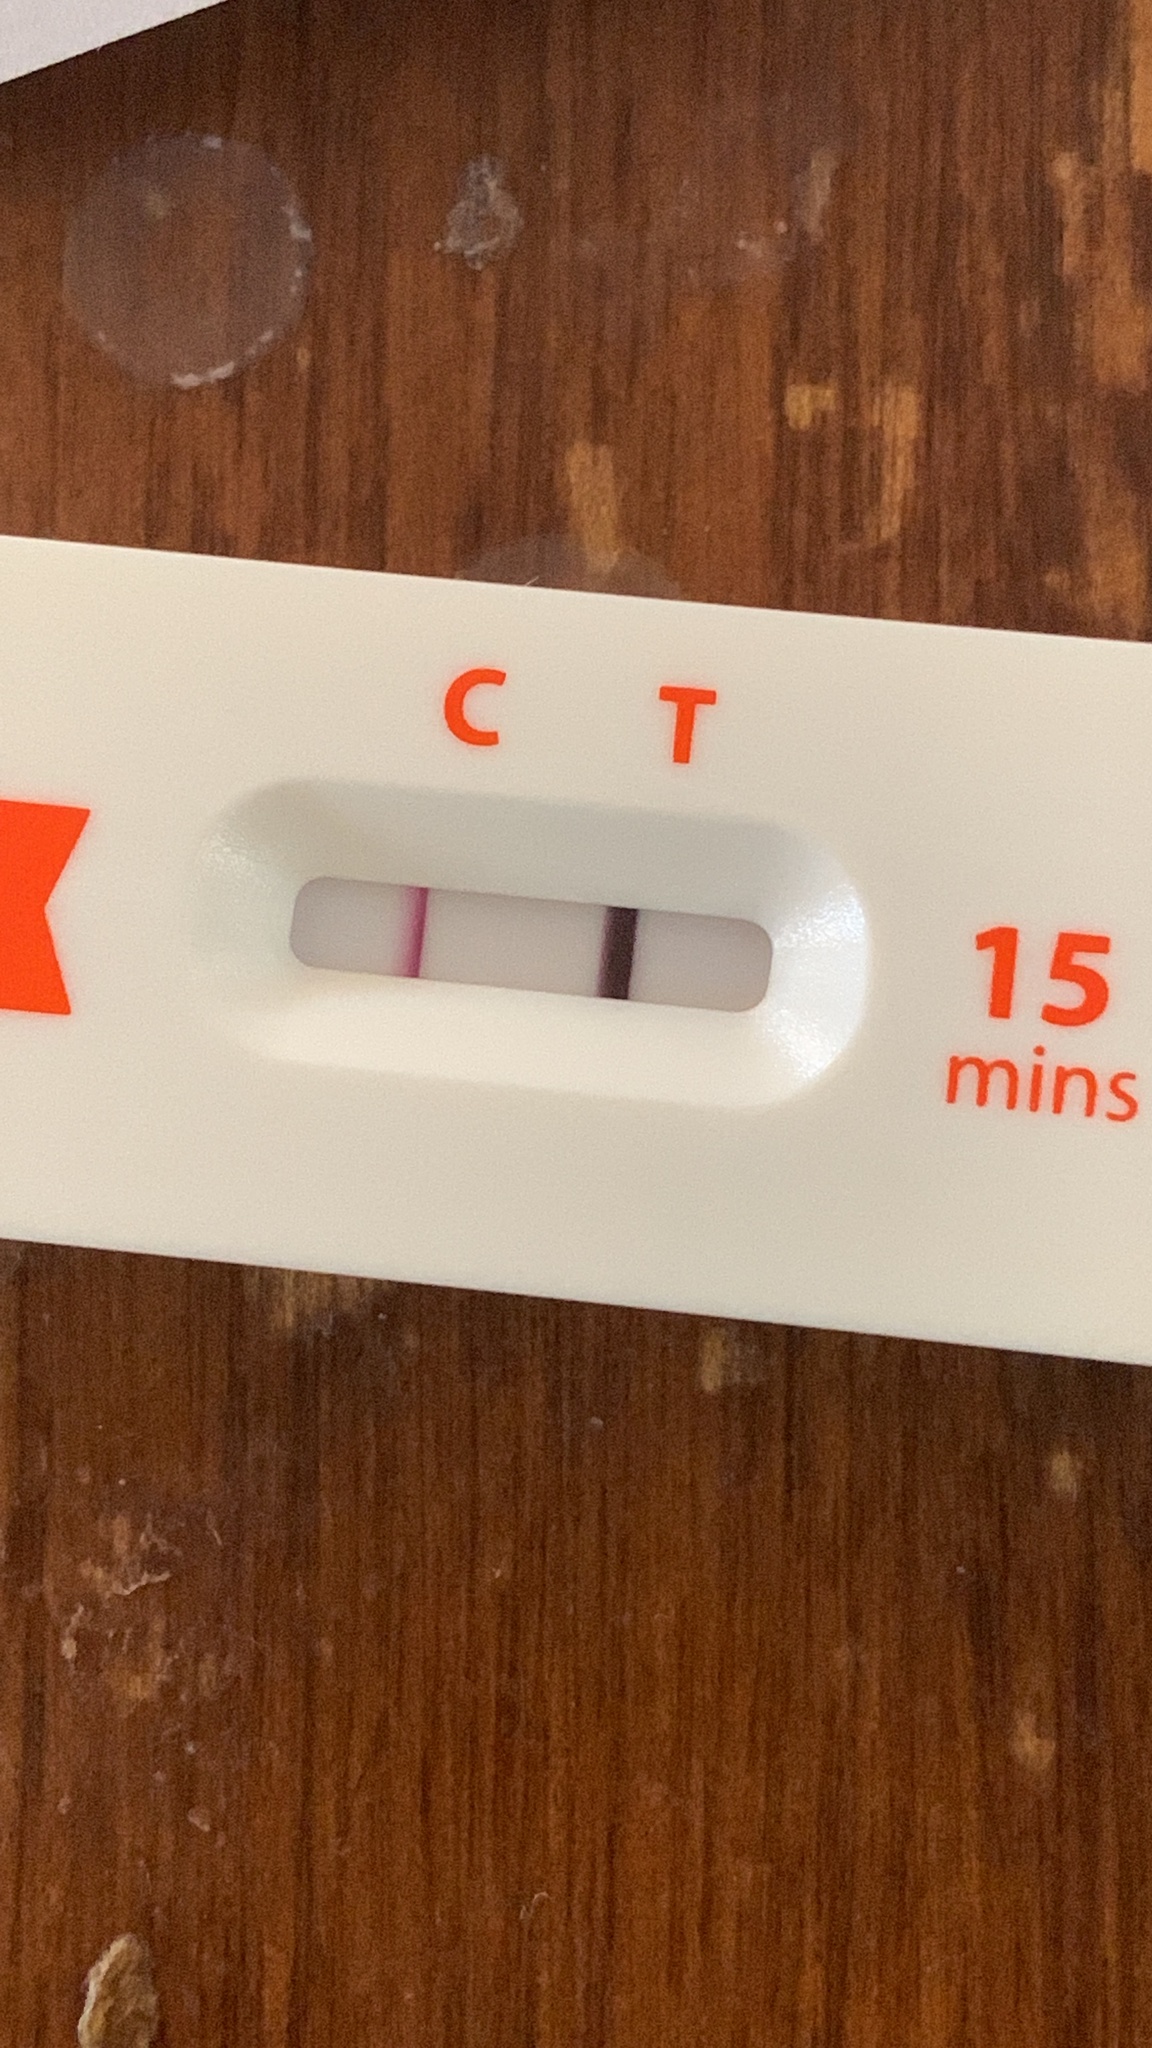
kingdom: Viruses
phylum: Pisuviricota
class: Pisoniviricetes
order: Nidovirales
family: Coronaviridae
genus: Betacoronavirus
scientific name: Betacoronavirus
